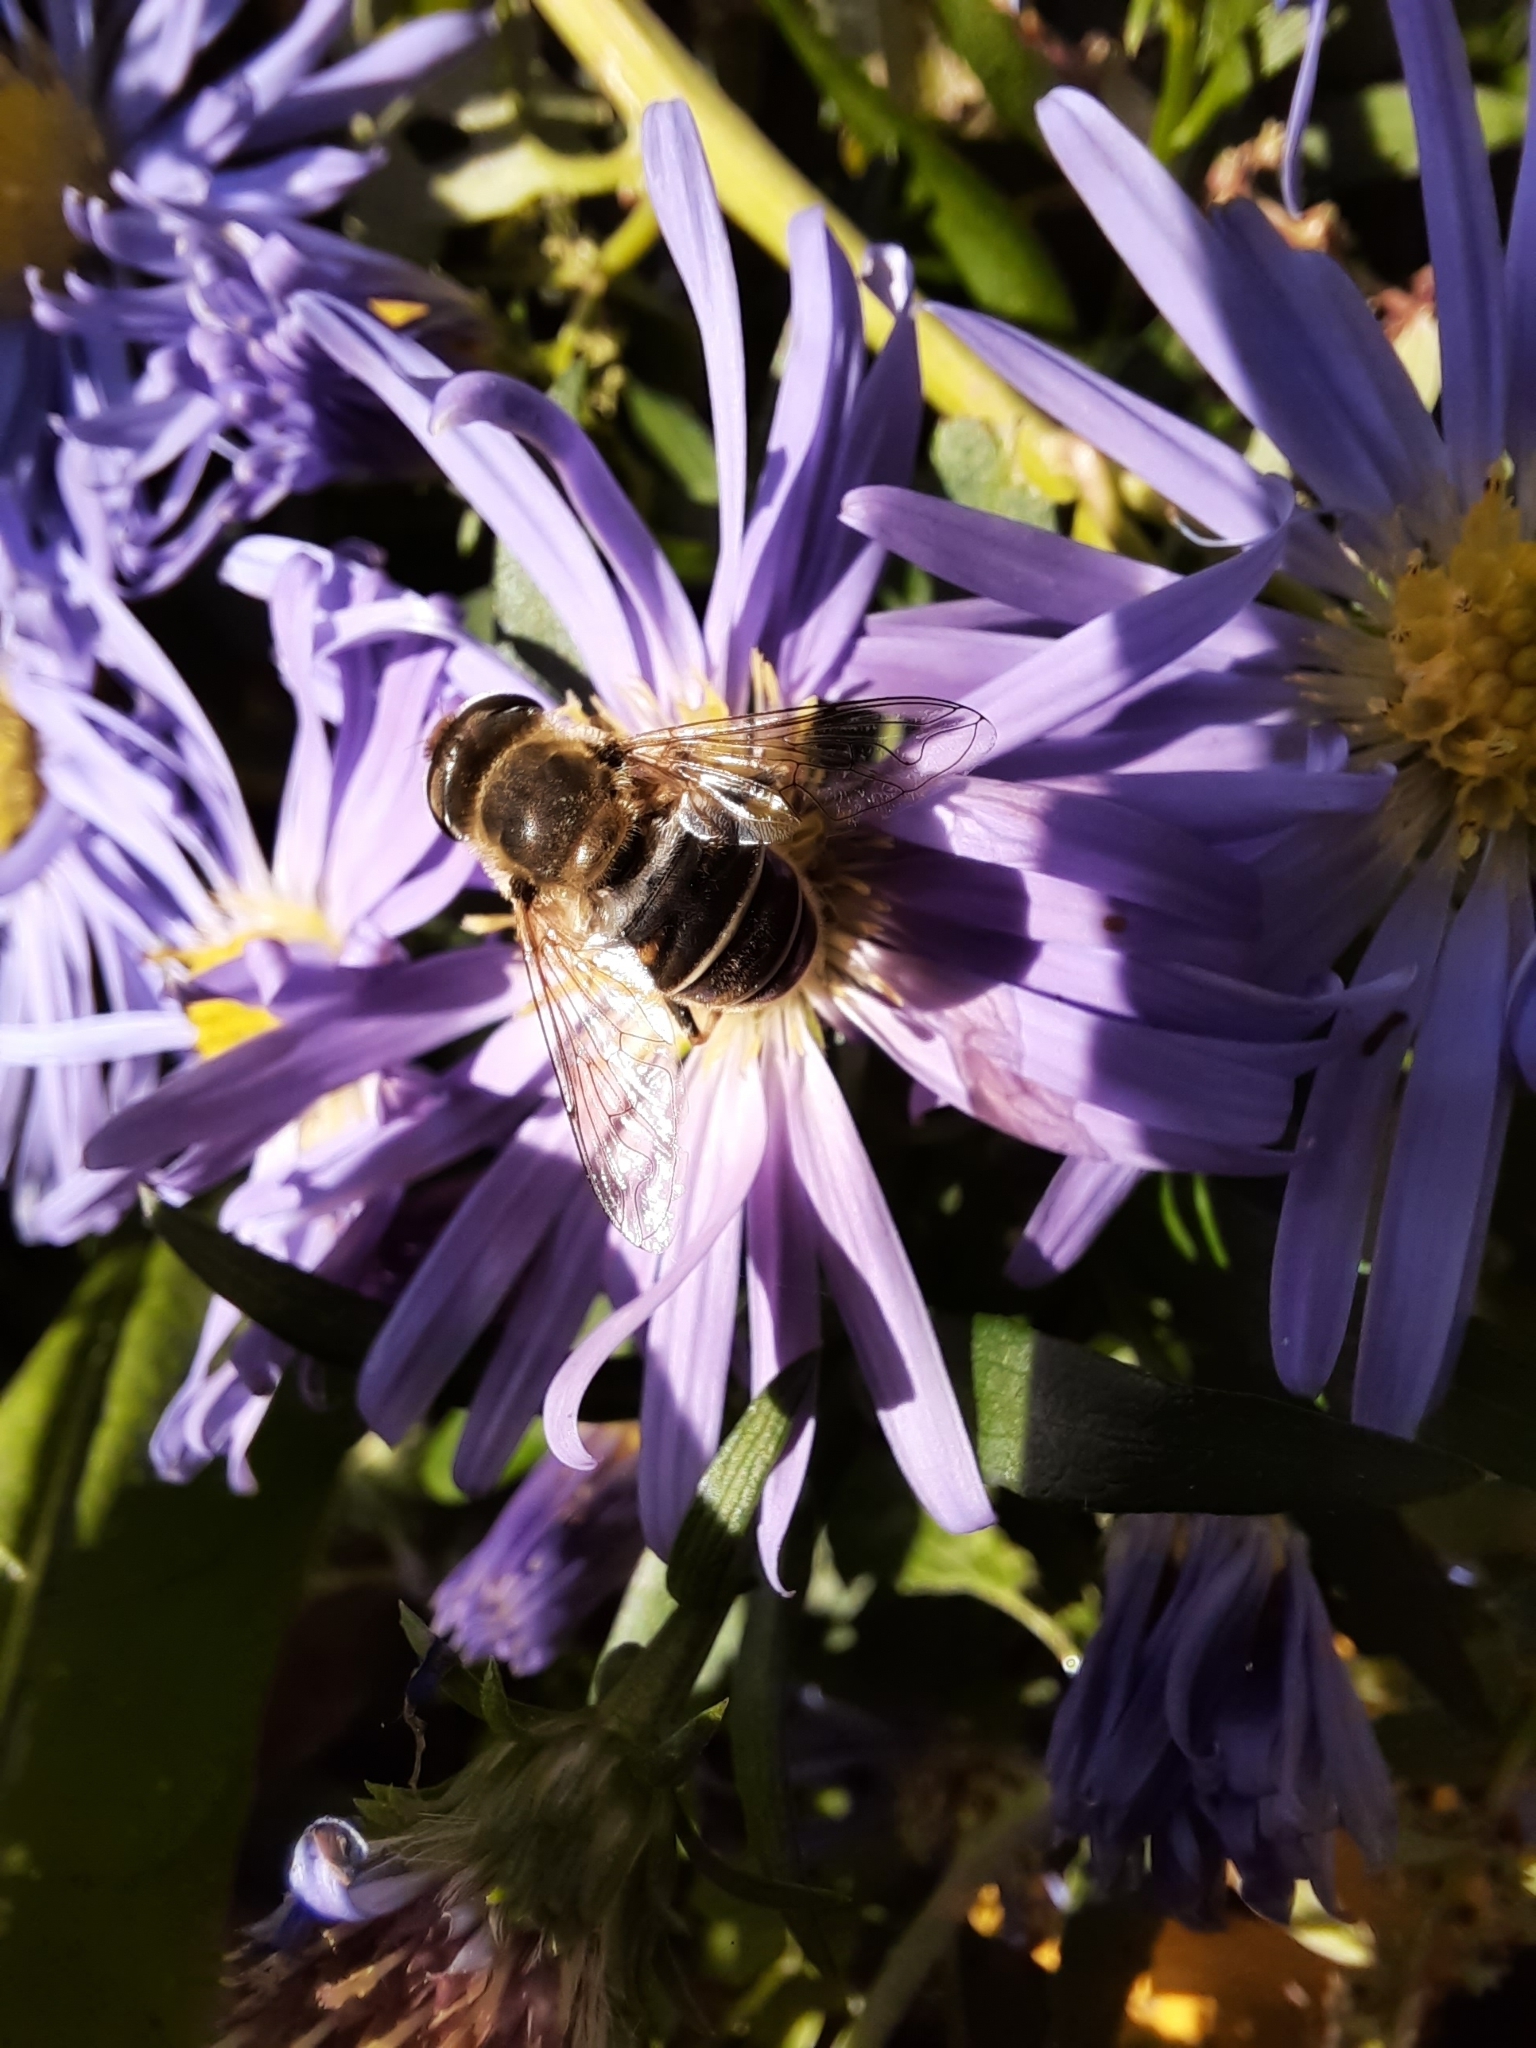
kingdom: Animalia
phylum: Arthropoda
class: Insecta
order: Diptera
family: Syrphidae
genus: Eristalis
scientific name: Eristalis nemorum
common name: Orange-spined drone fly
